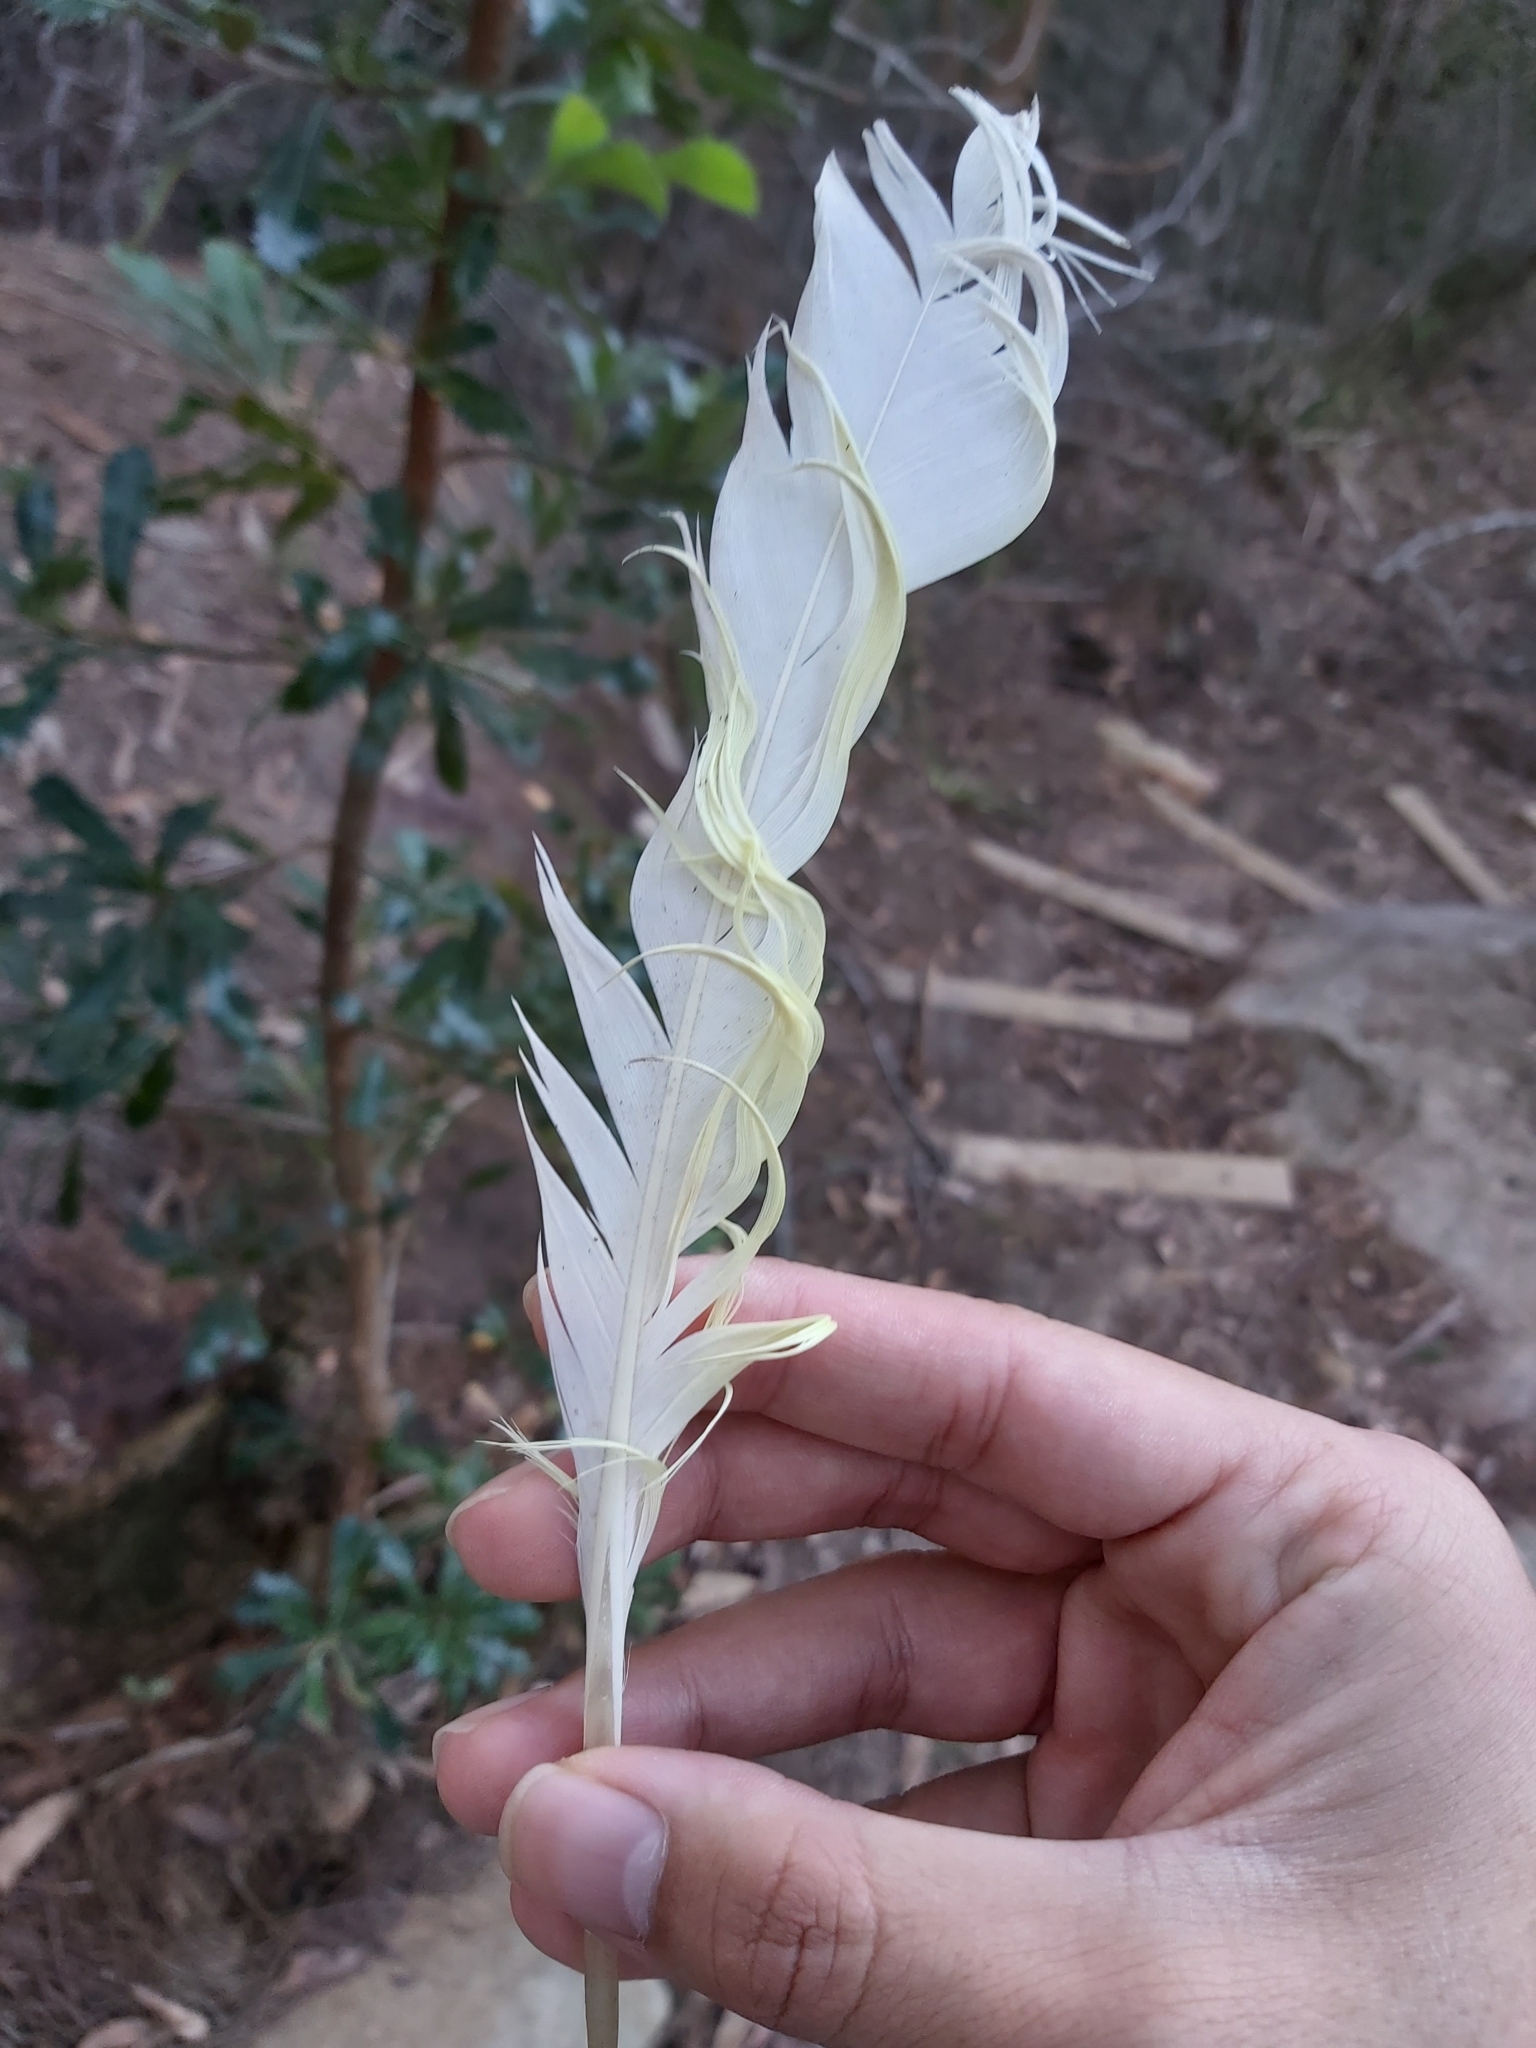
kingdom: Animalia
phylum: Chordata
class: Aves
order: Psittaciformes
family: Psittacidae
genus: Cacatua
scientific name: Cacatua galerita
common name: Sulphur-crested cockatoo
